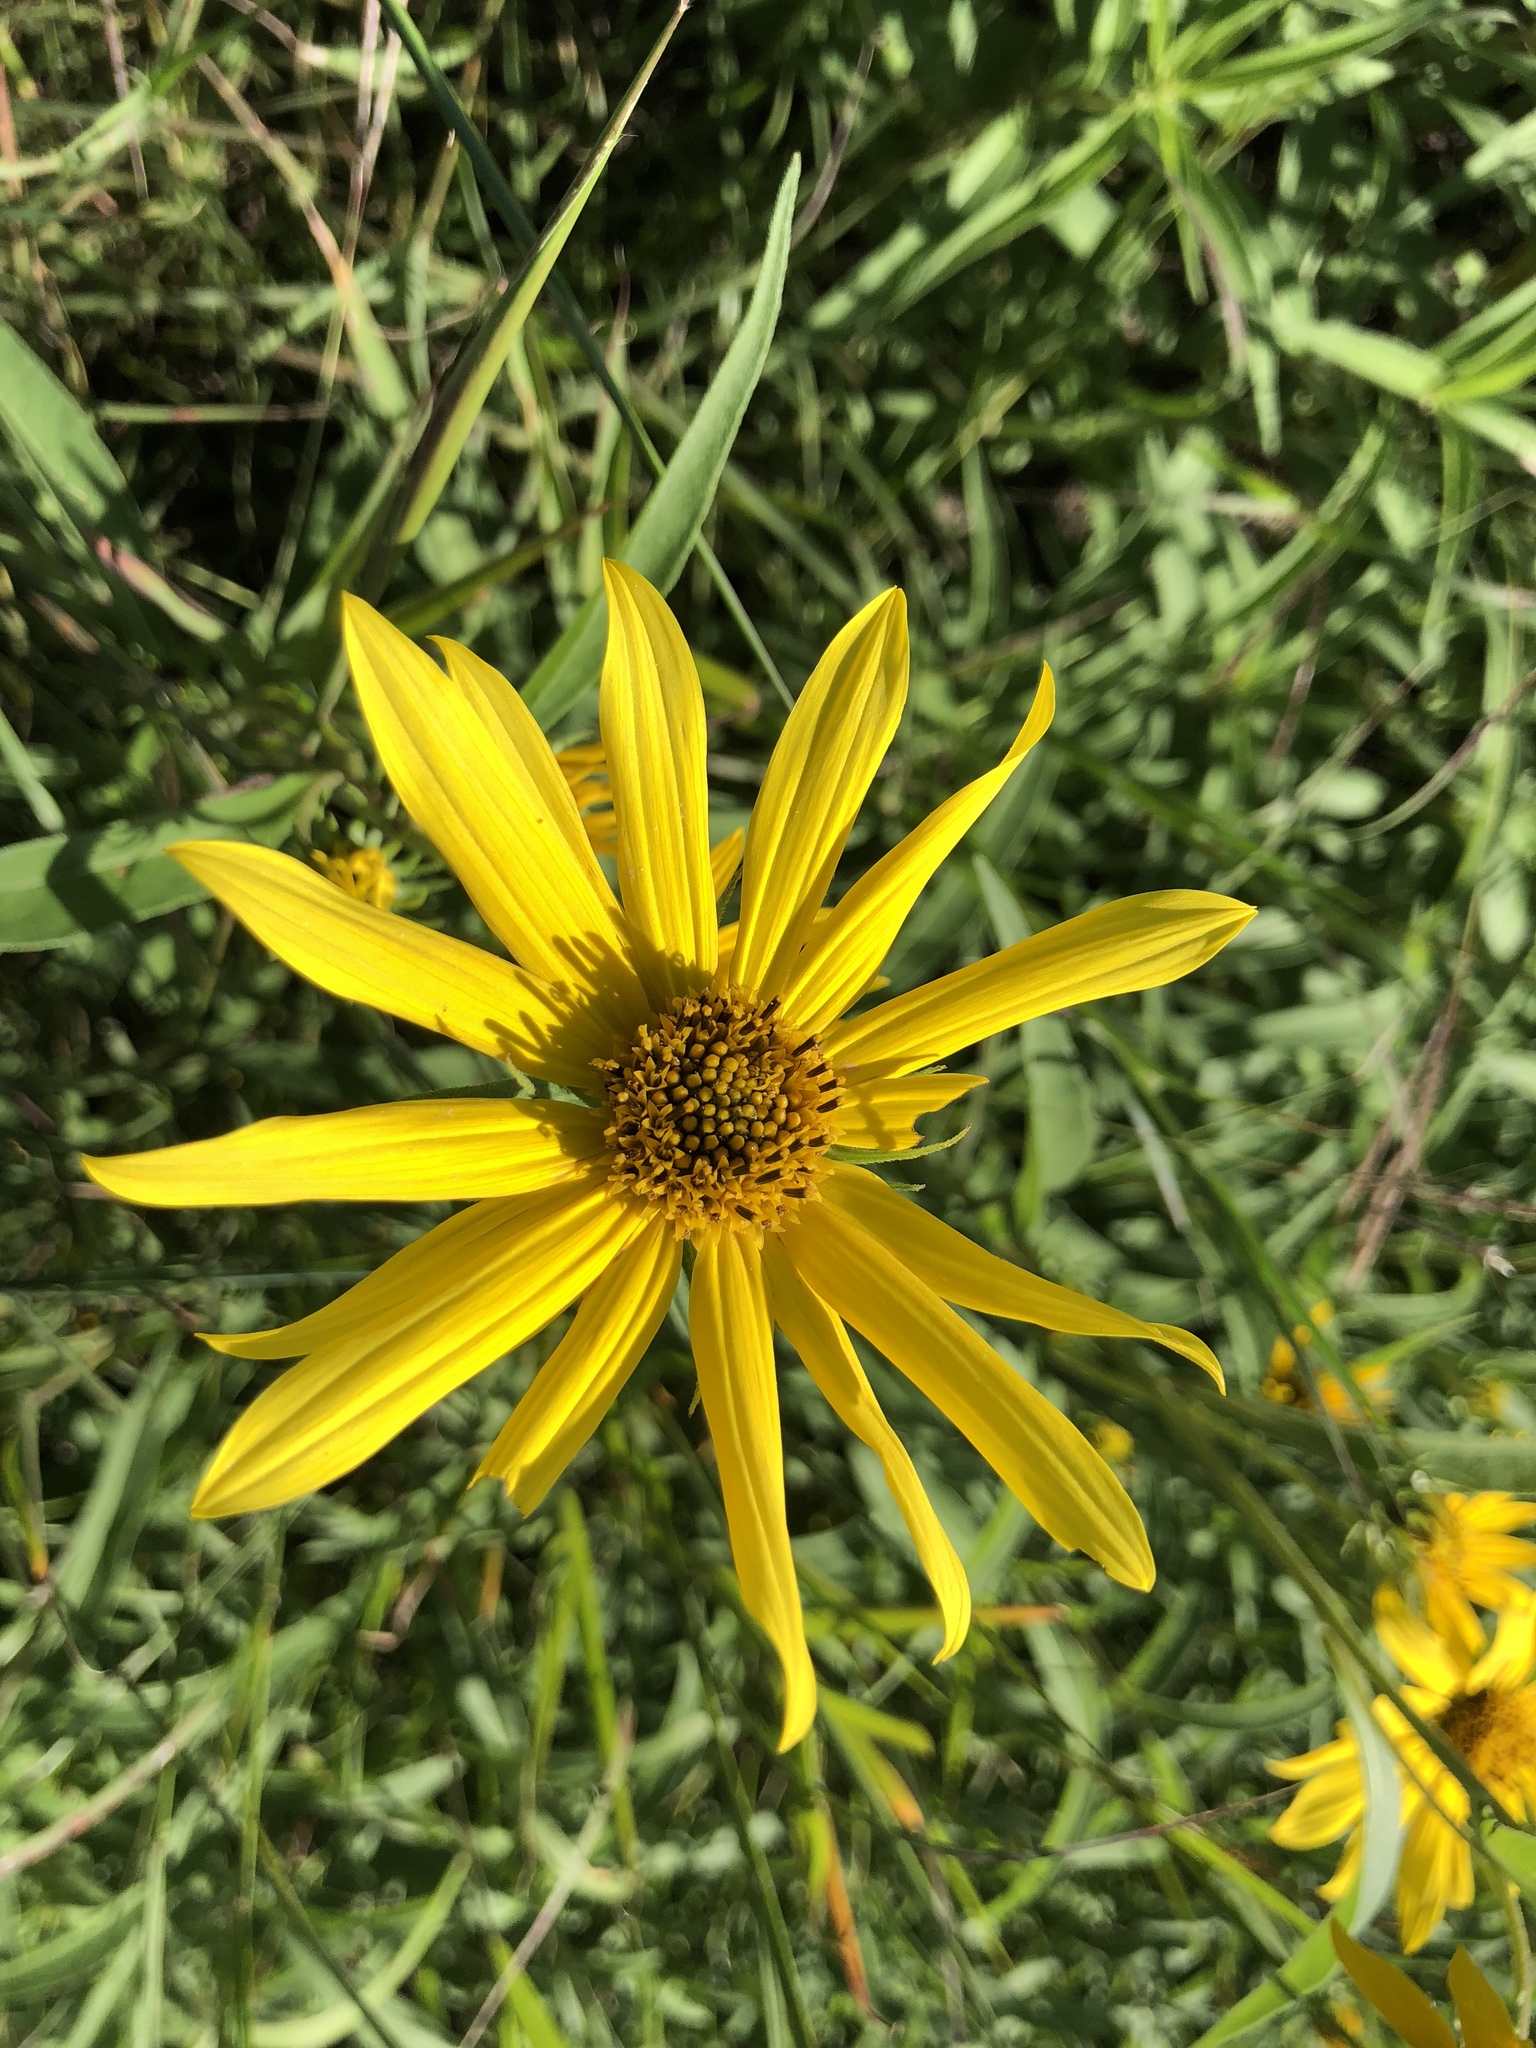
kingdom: Plantae
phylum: Tracheophyta
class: Magnoliopsida
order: Asterales
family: Asteraceae
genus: Helianthus
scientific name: Helianthus maximiliani
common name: Maximilian's sunflower
